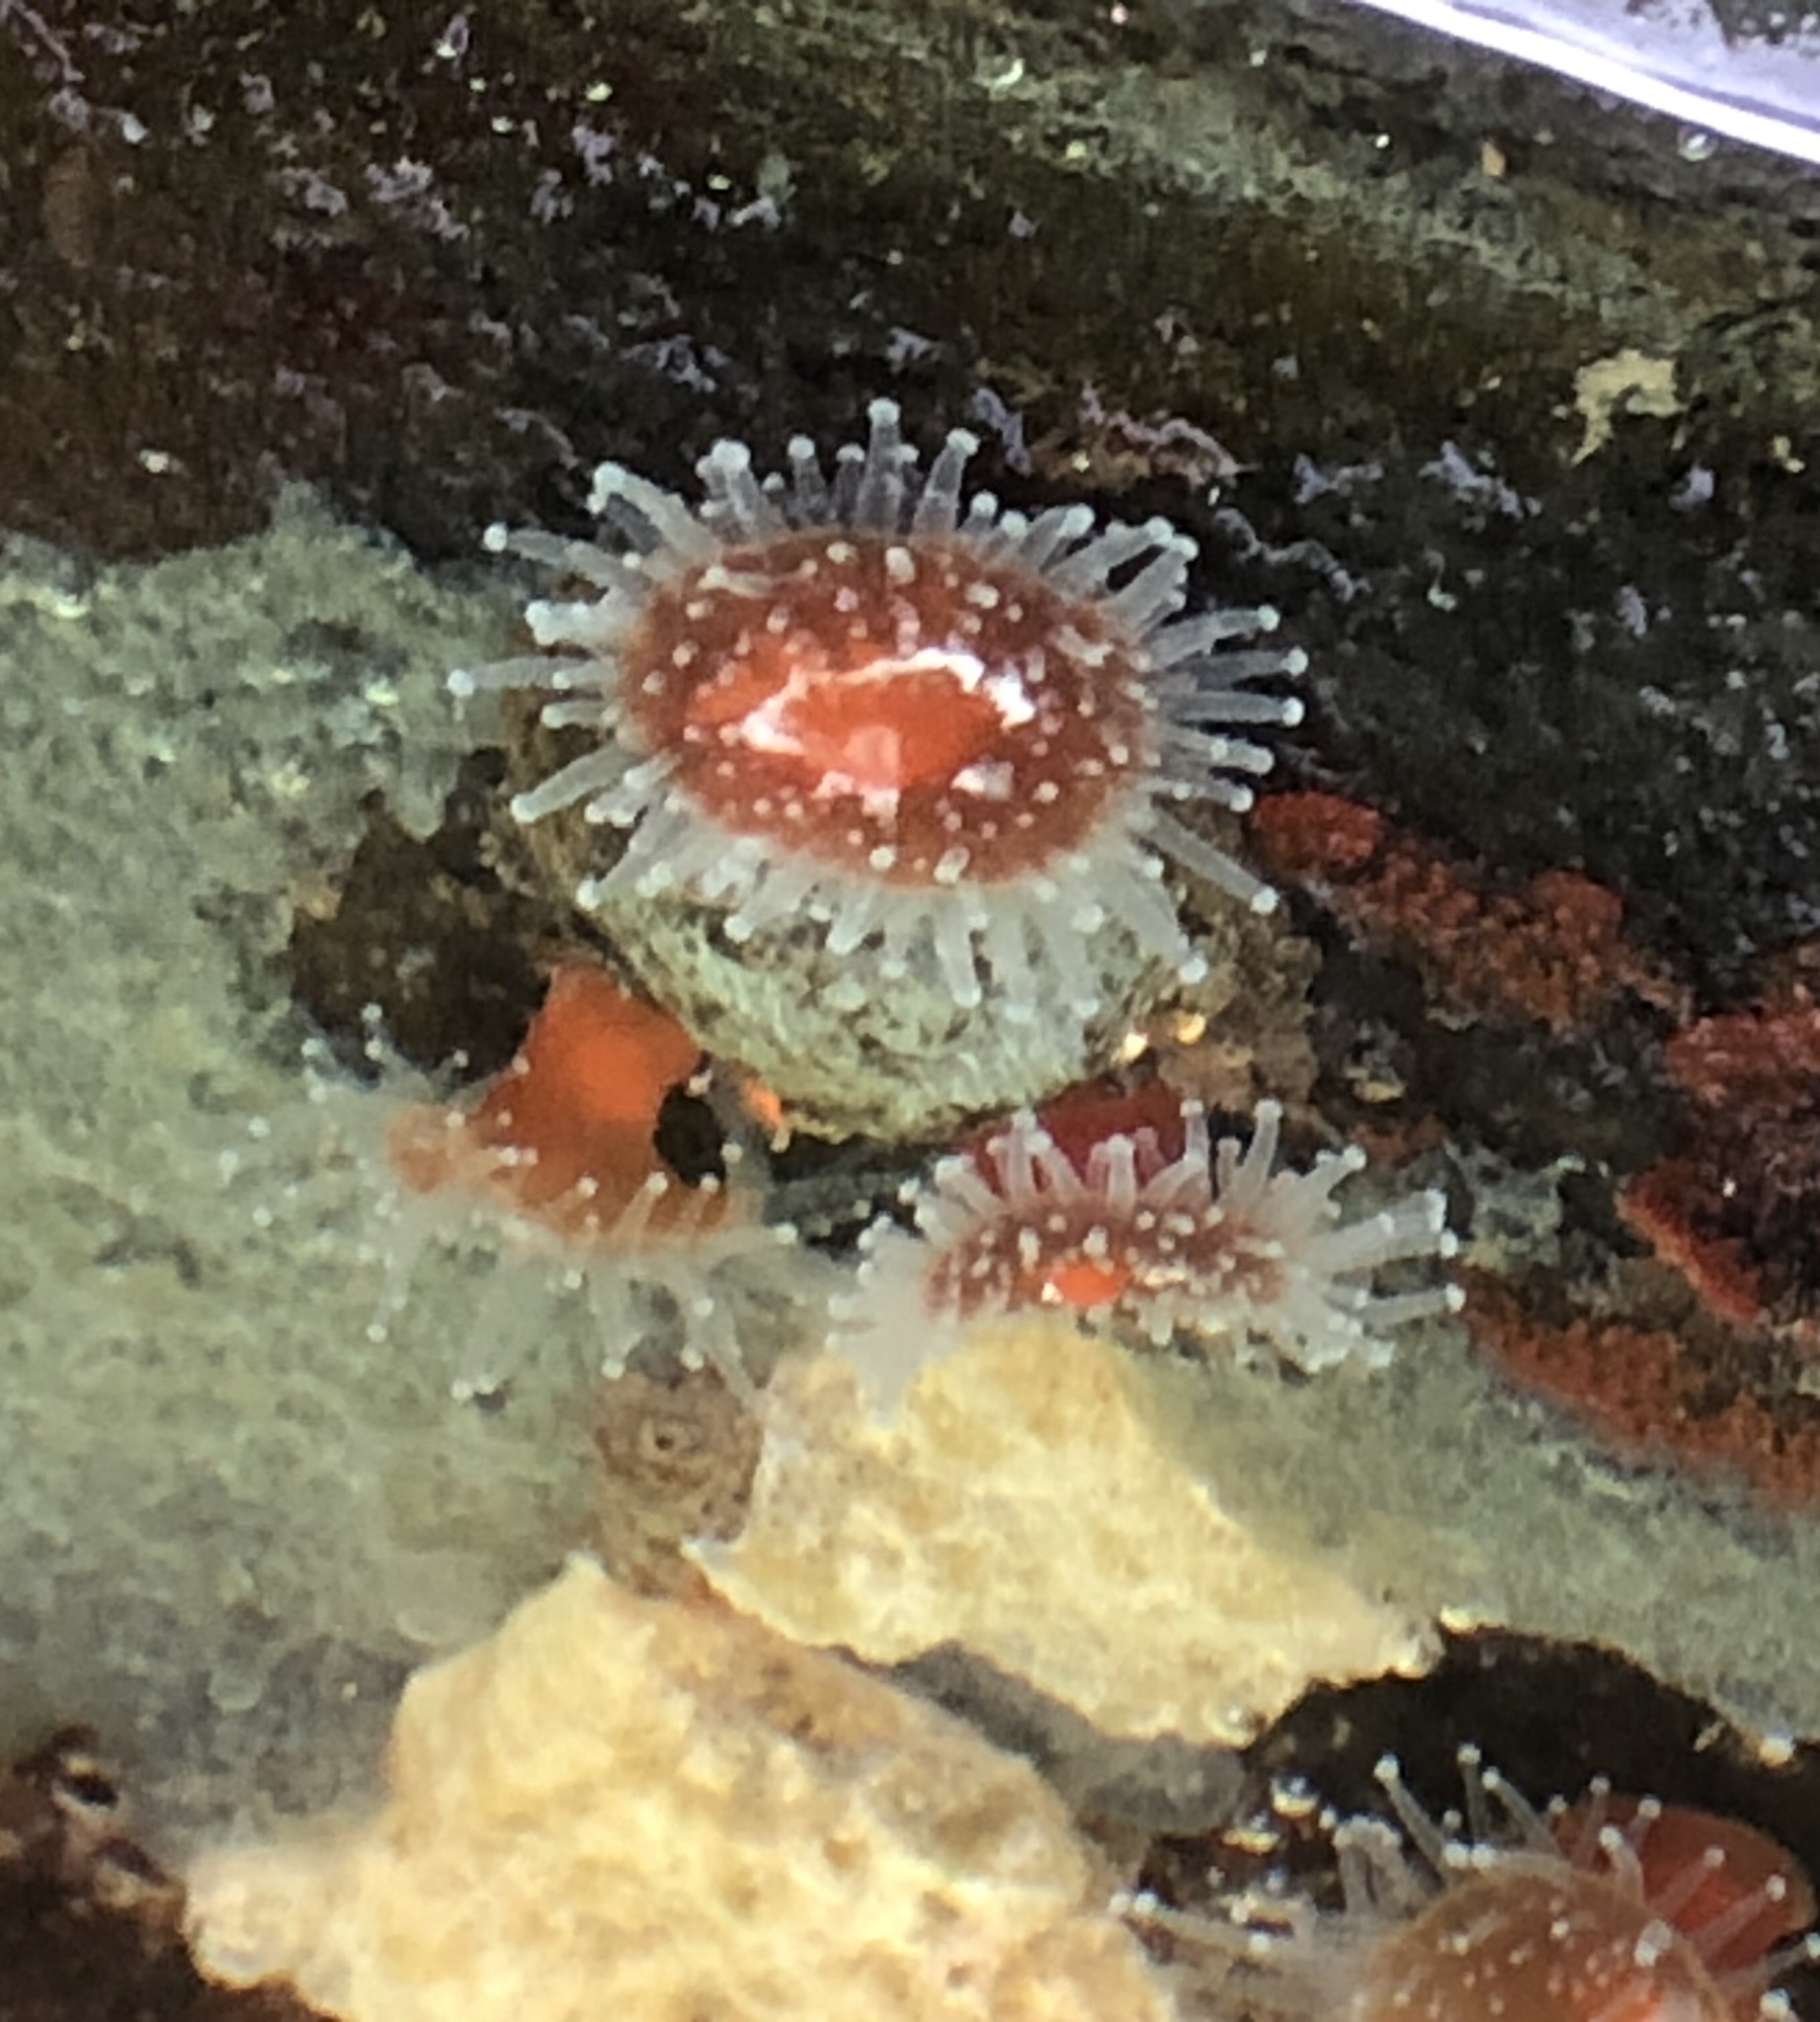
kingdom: Animalia
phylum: Cnidaria
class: Anthozoa
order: Corallimorpharia
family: Corallimorphidae
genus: Corynactis
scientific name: Corynactis californica
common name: Strawberry corallimorpharian
